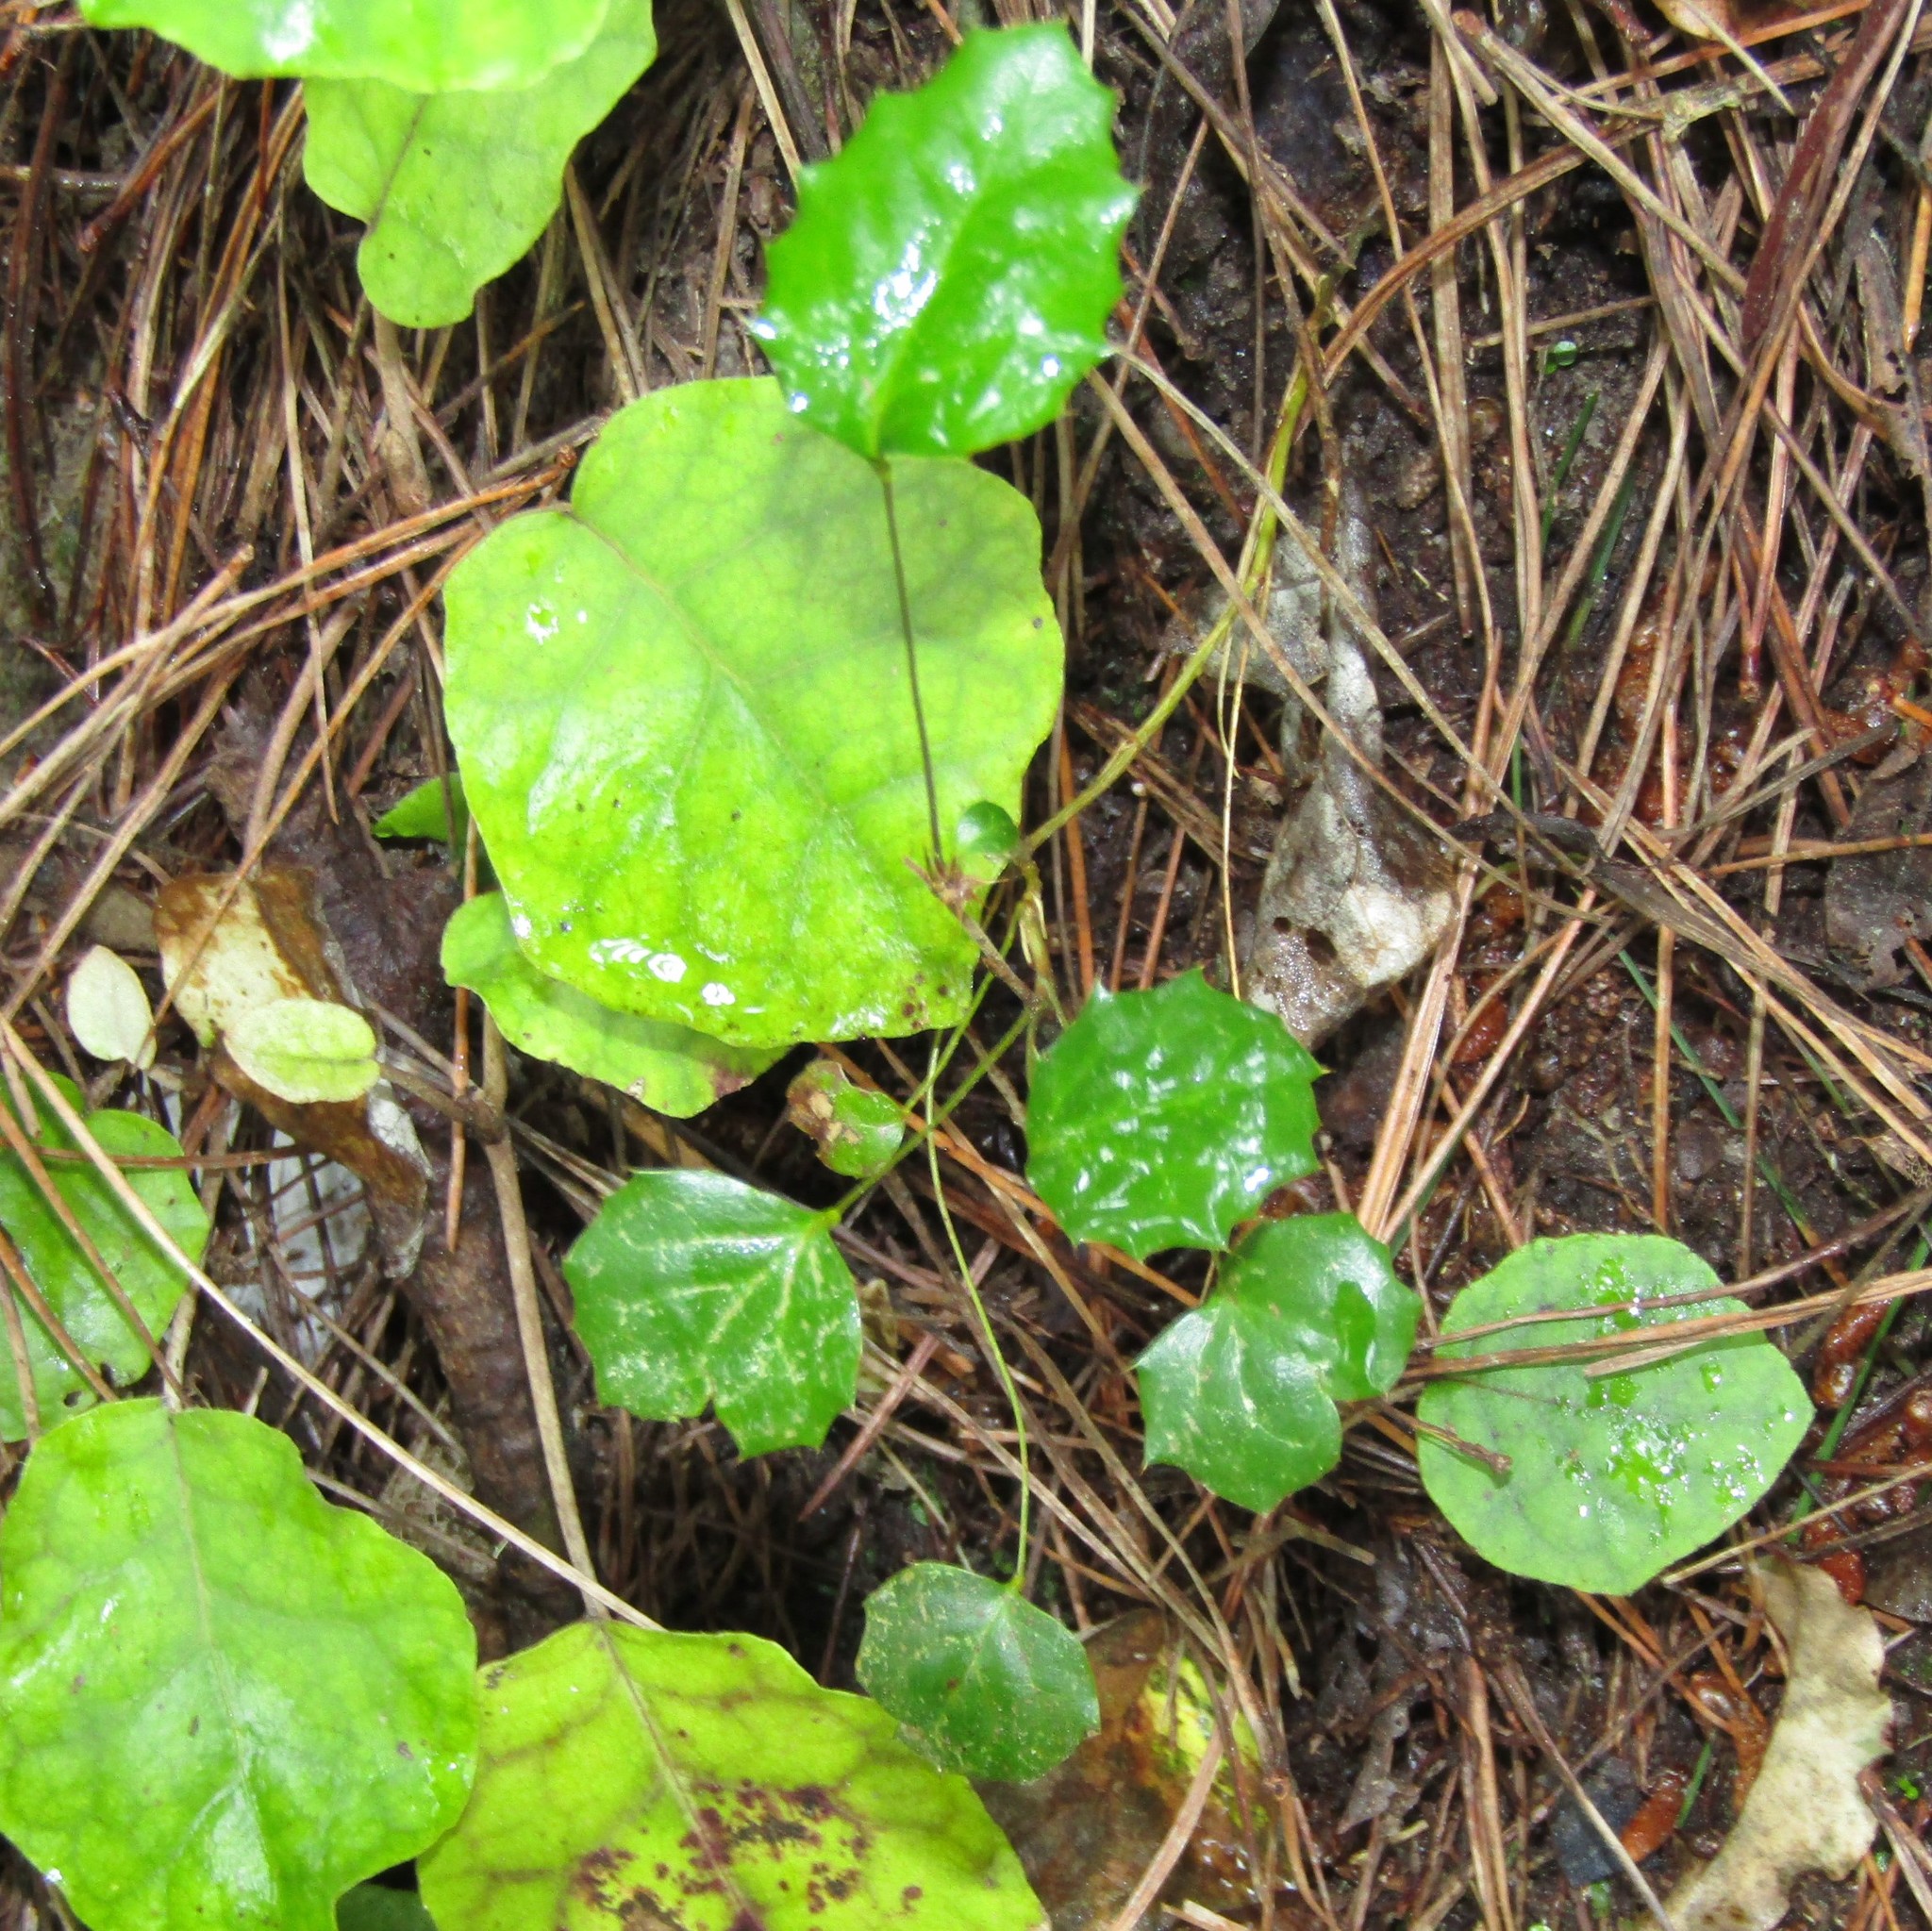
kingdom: Plantae
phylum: Tracheophyta
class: Magnoliopsida
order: Ranunculales
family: Berberidaceae
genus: Berberis
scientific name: Berberis glaucocarpa
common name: Great barberry
